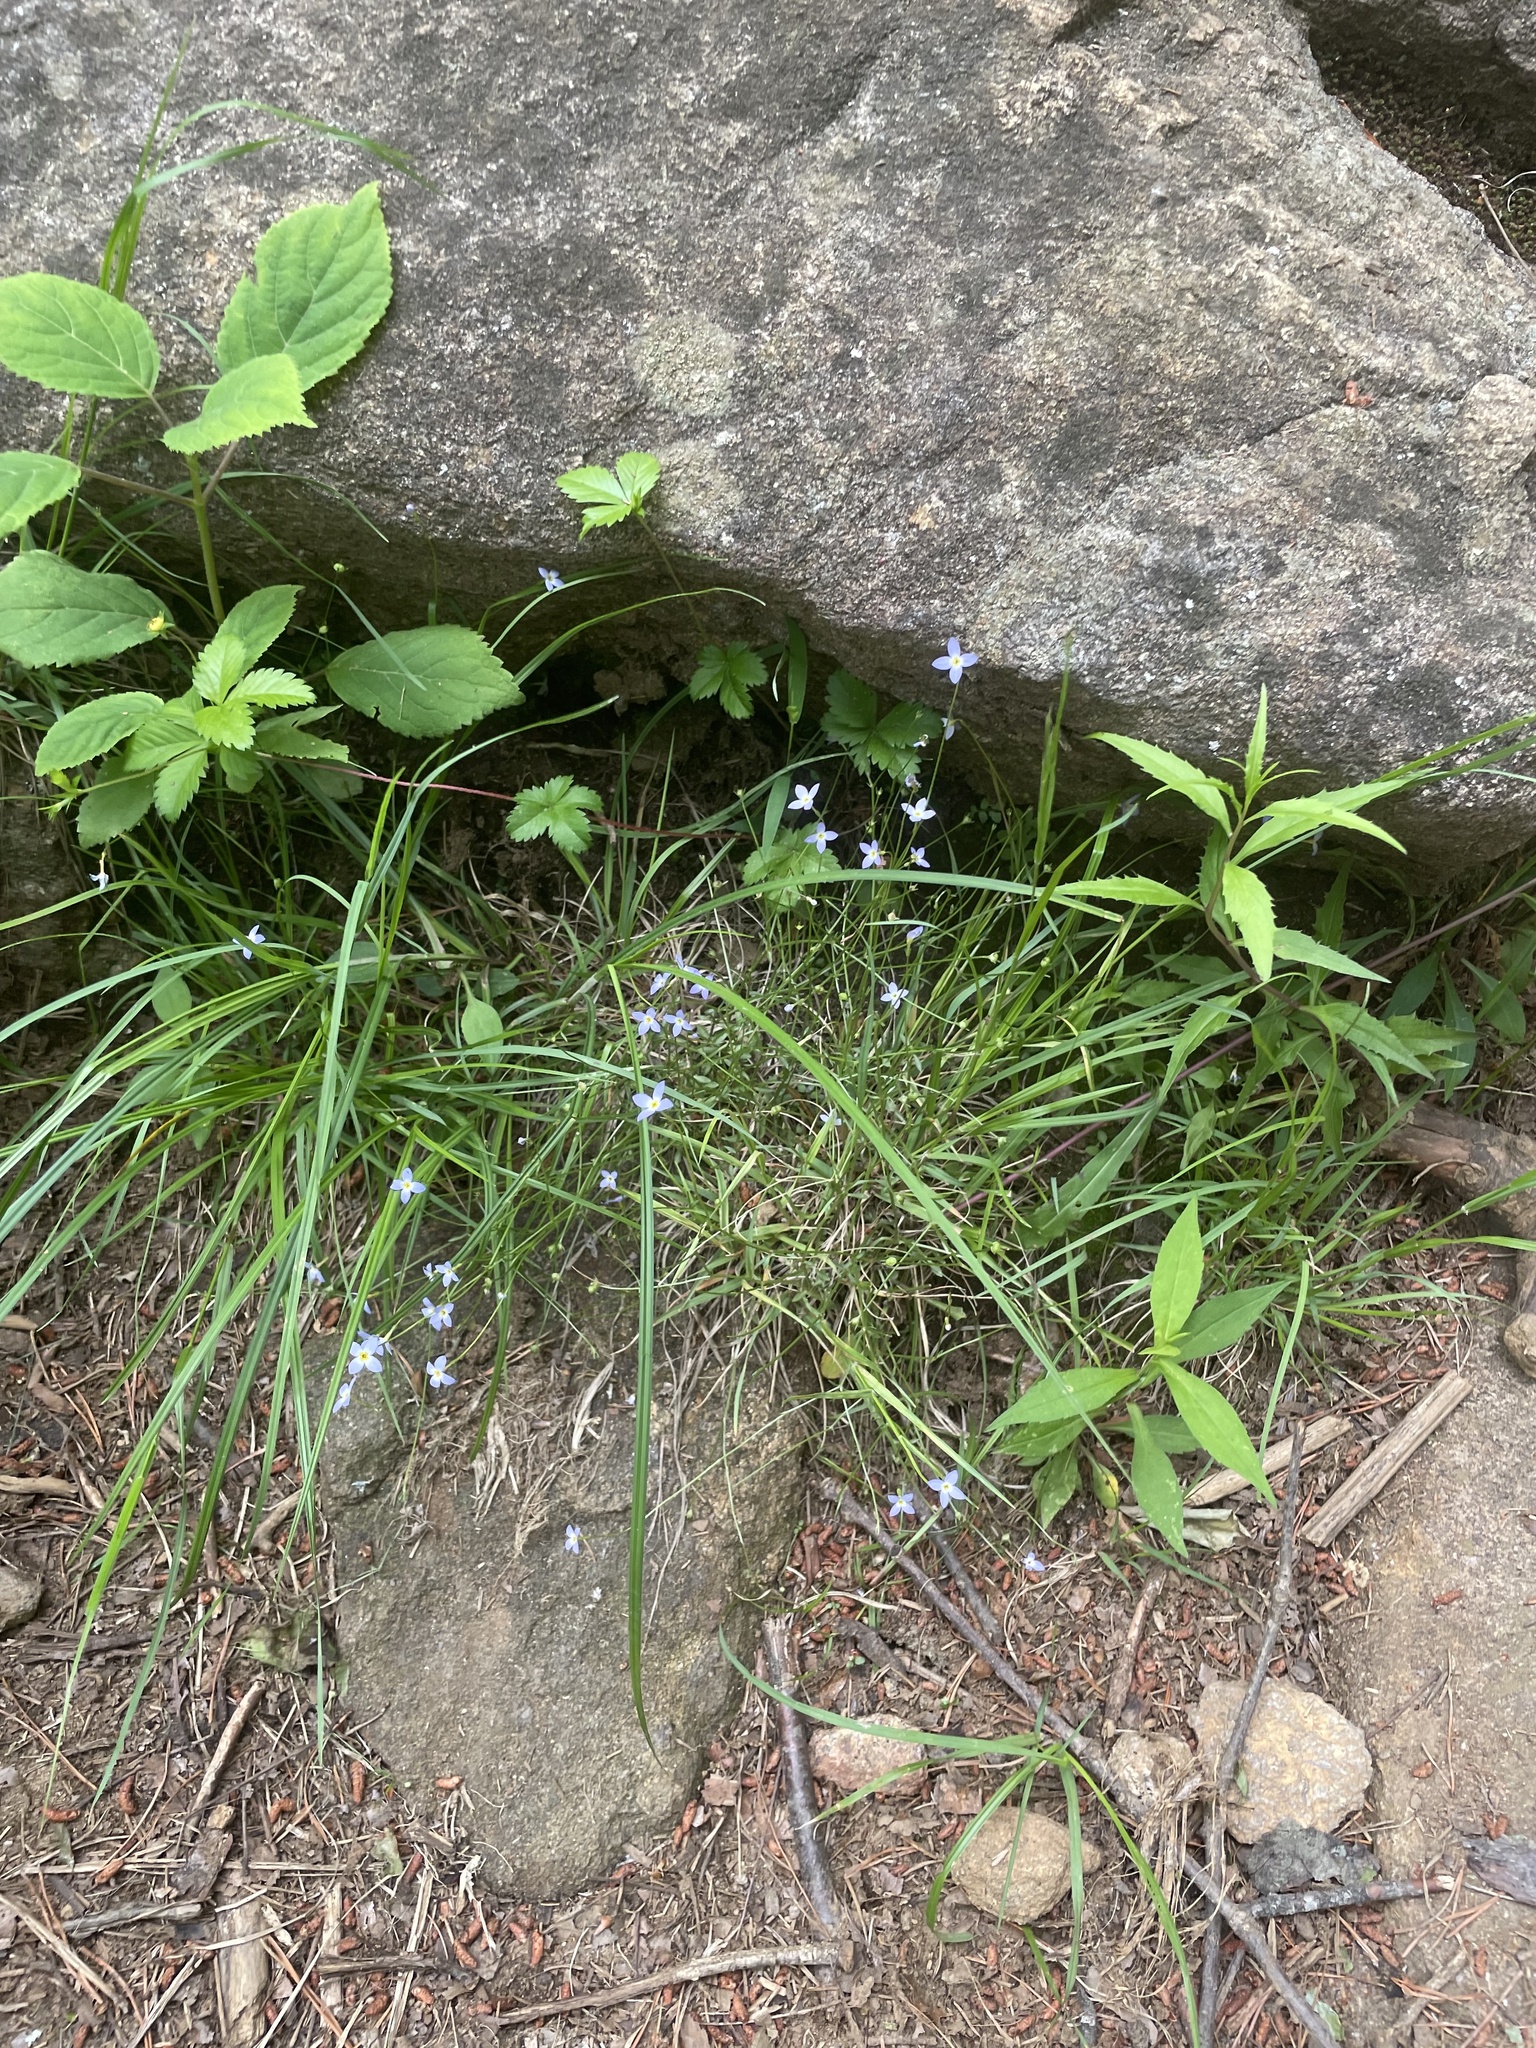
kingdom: Plantae
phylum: Tracheophyta
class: Magnoliopsida
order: Gentianales
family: Rubiaceae
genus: Houstonia
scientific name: Houstonia caerulea
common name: Bluets
